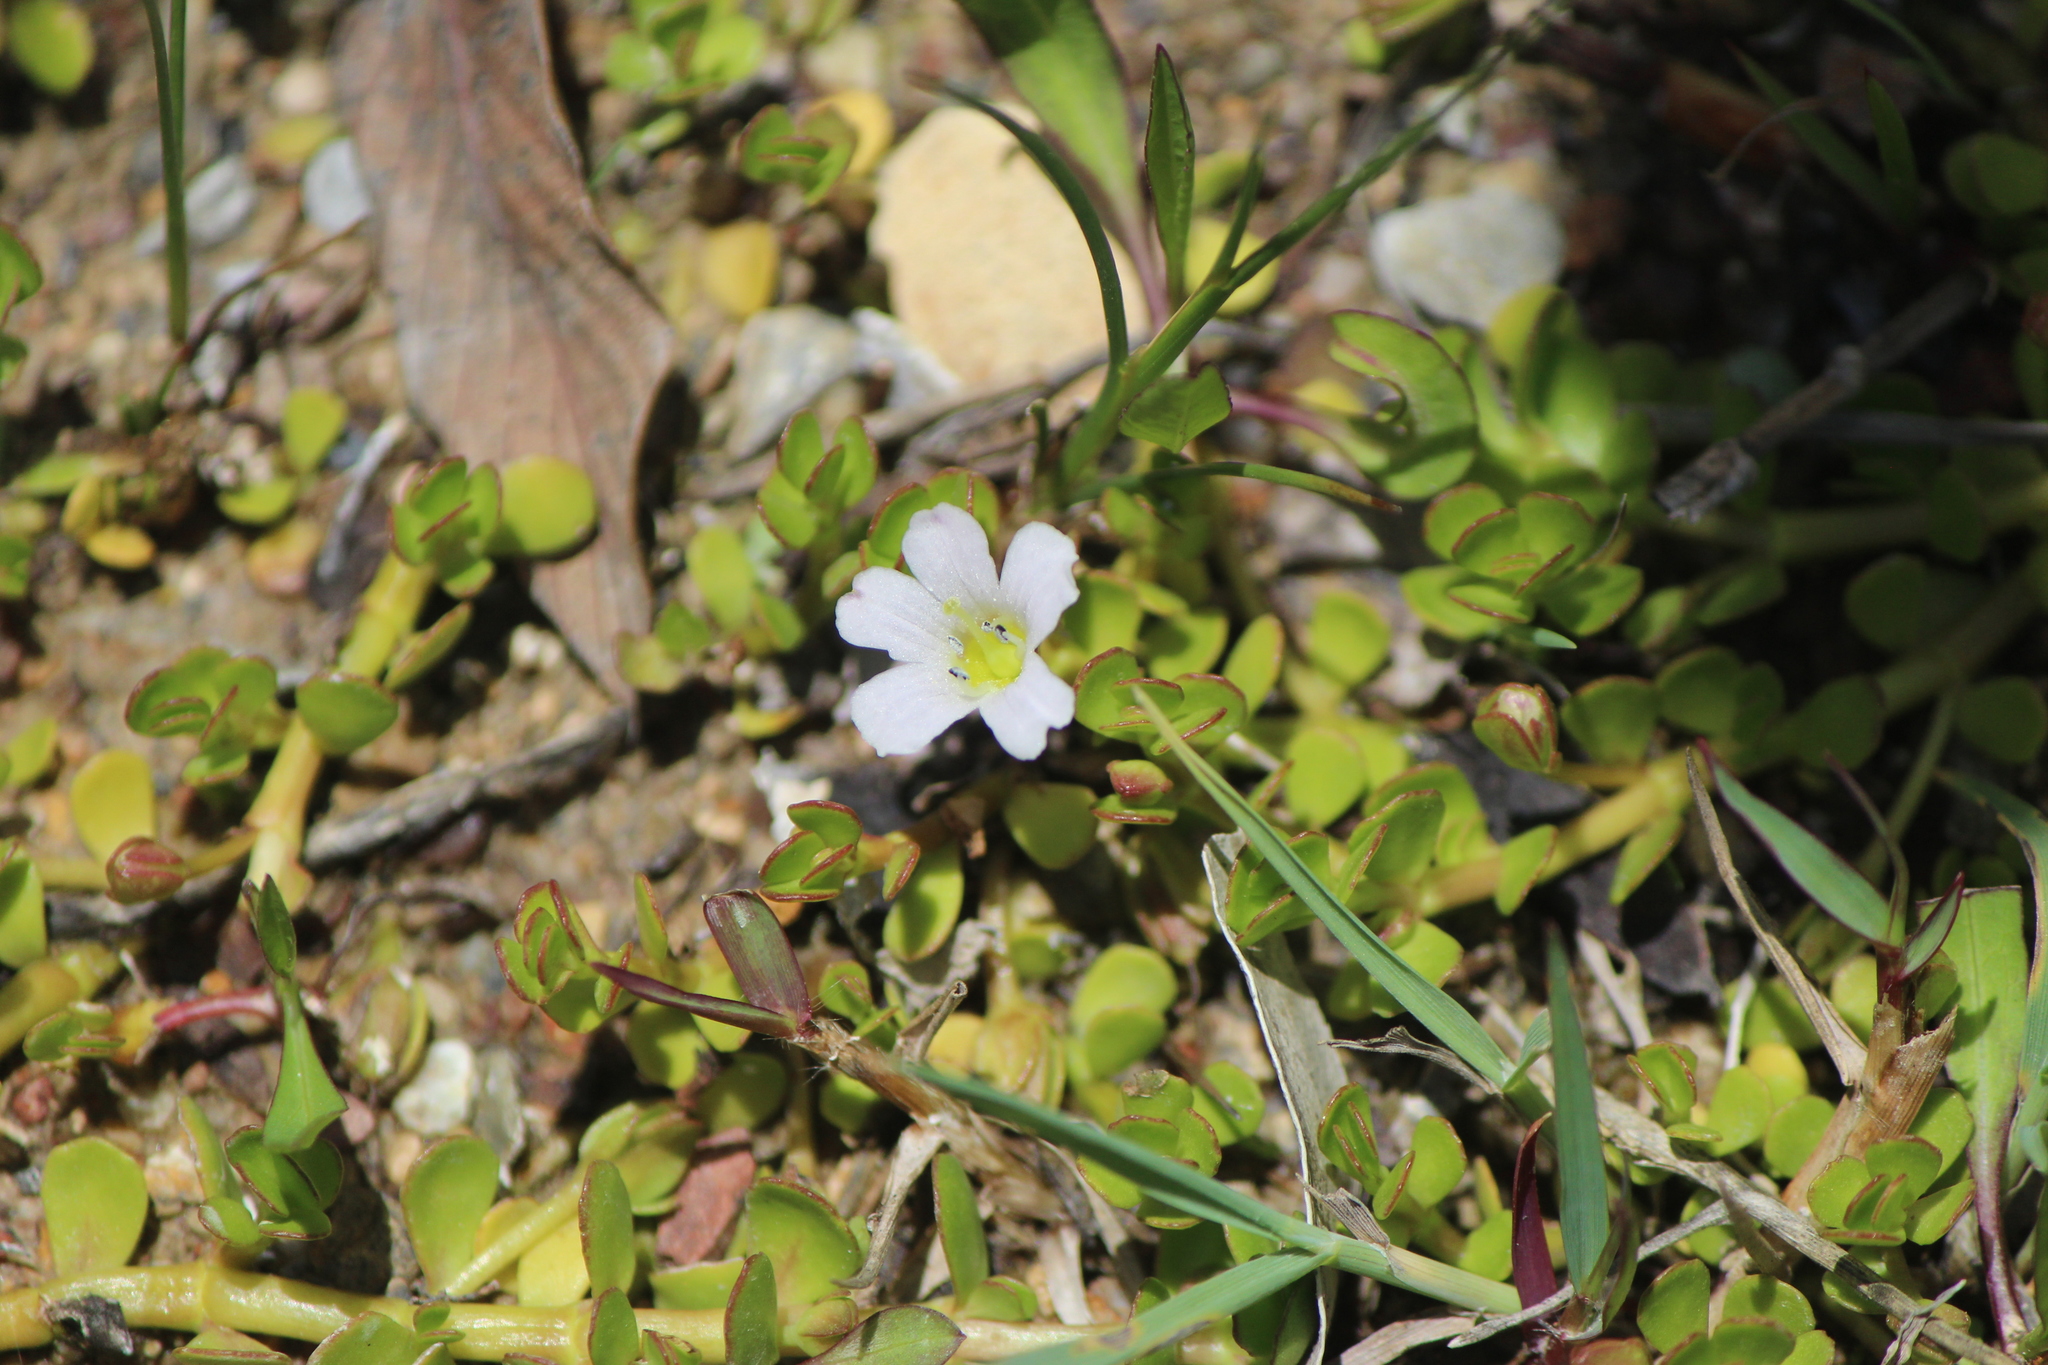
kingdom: Plantae
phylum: Tracheophyta
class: Magnoliopsida
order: Lamiales
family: Plantaginaceae
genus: Bacopa
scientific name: Bacopa monnieri
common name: Indian-pennywort
